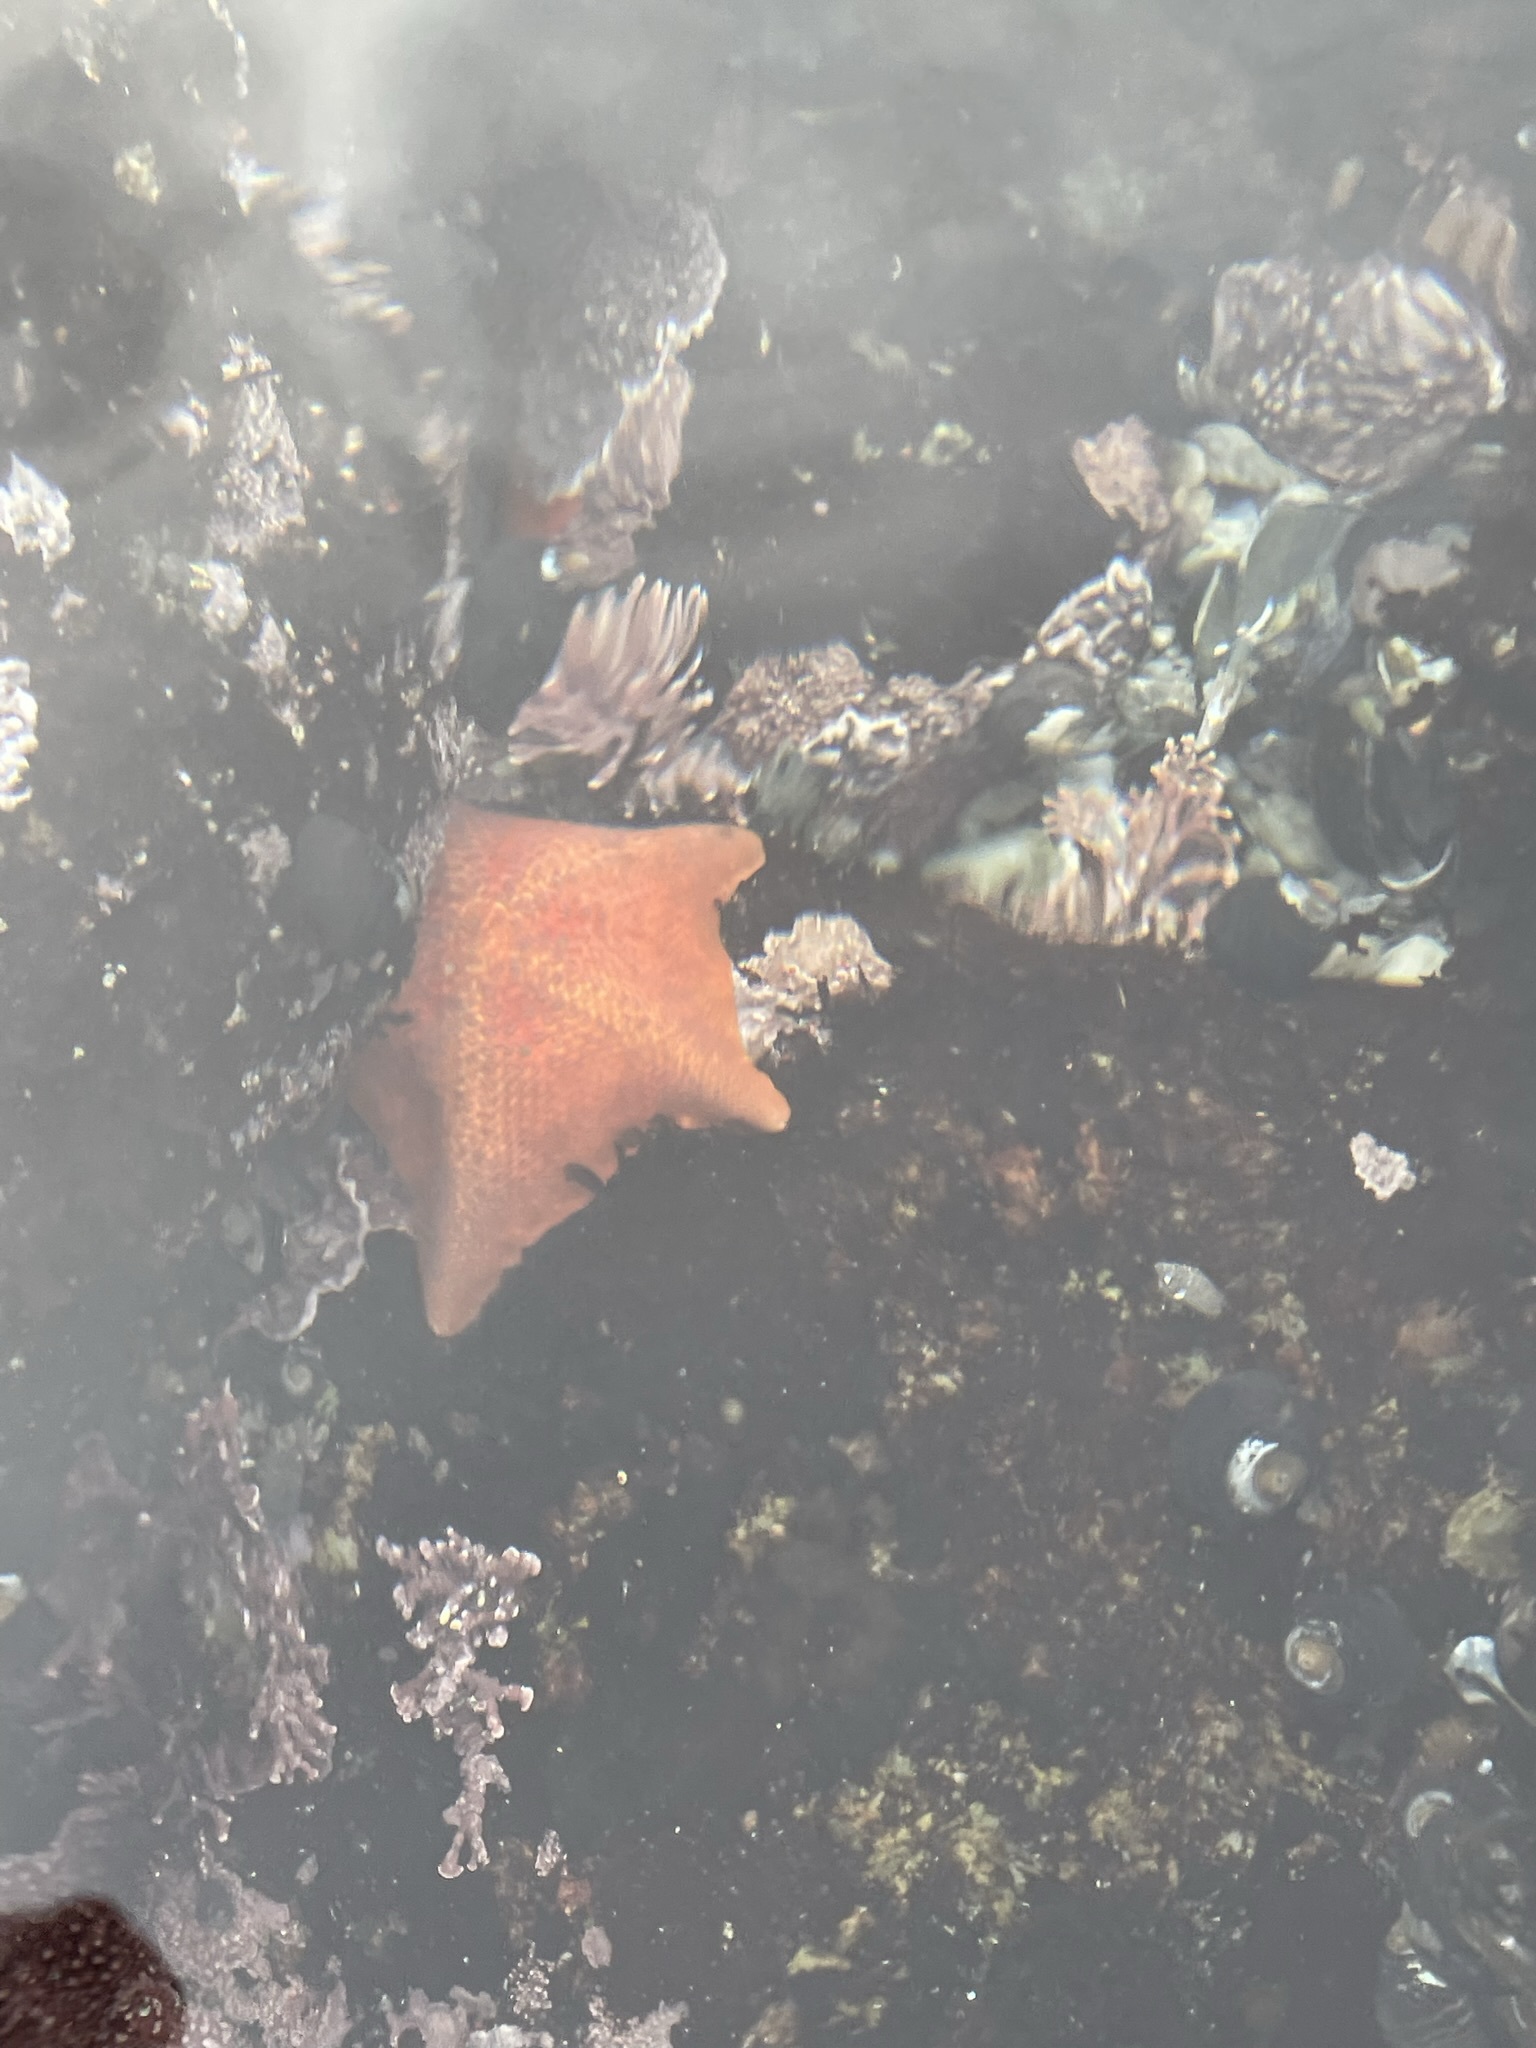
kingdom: Animalia
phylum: Echinodermata
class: Asteroidea
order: Valvatida
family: Asterinidae
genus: Patiria
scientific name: Patiria miniata
